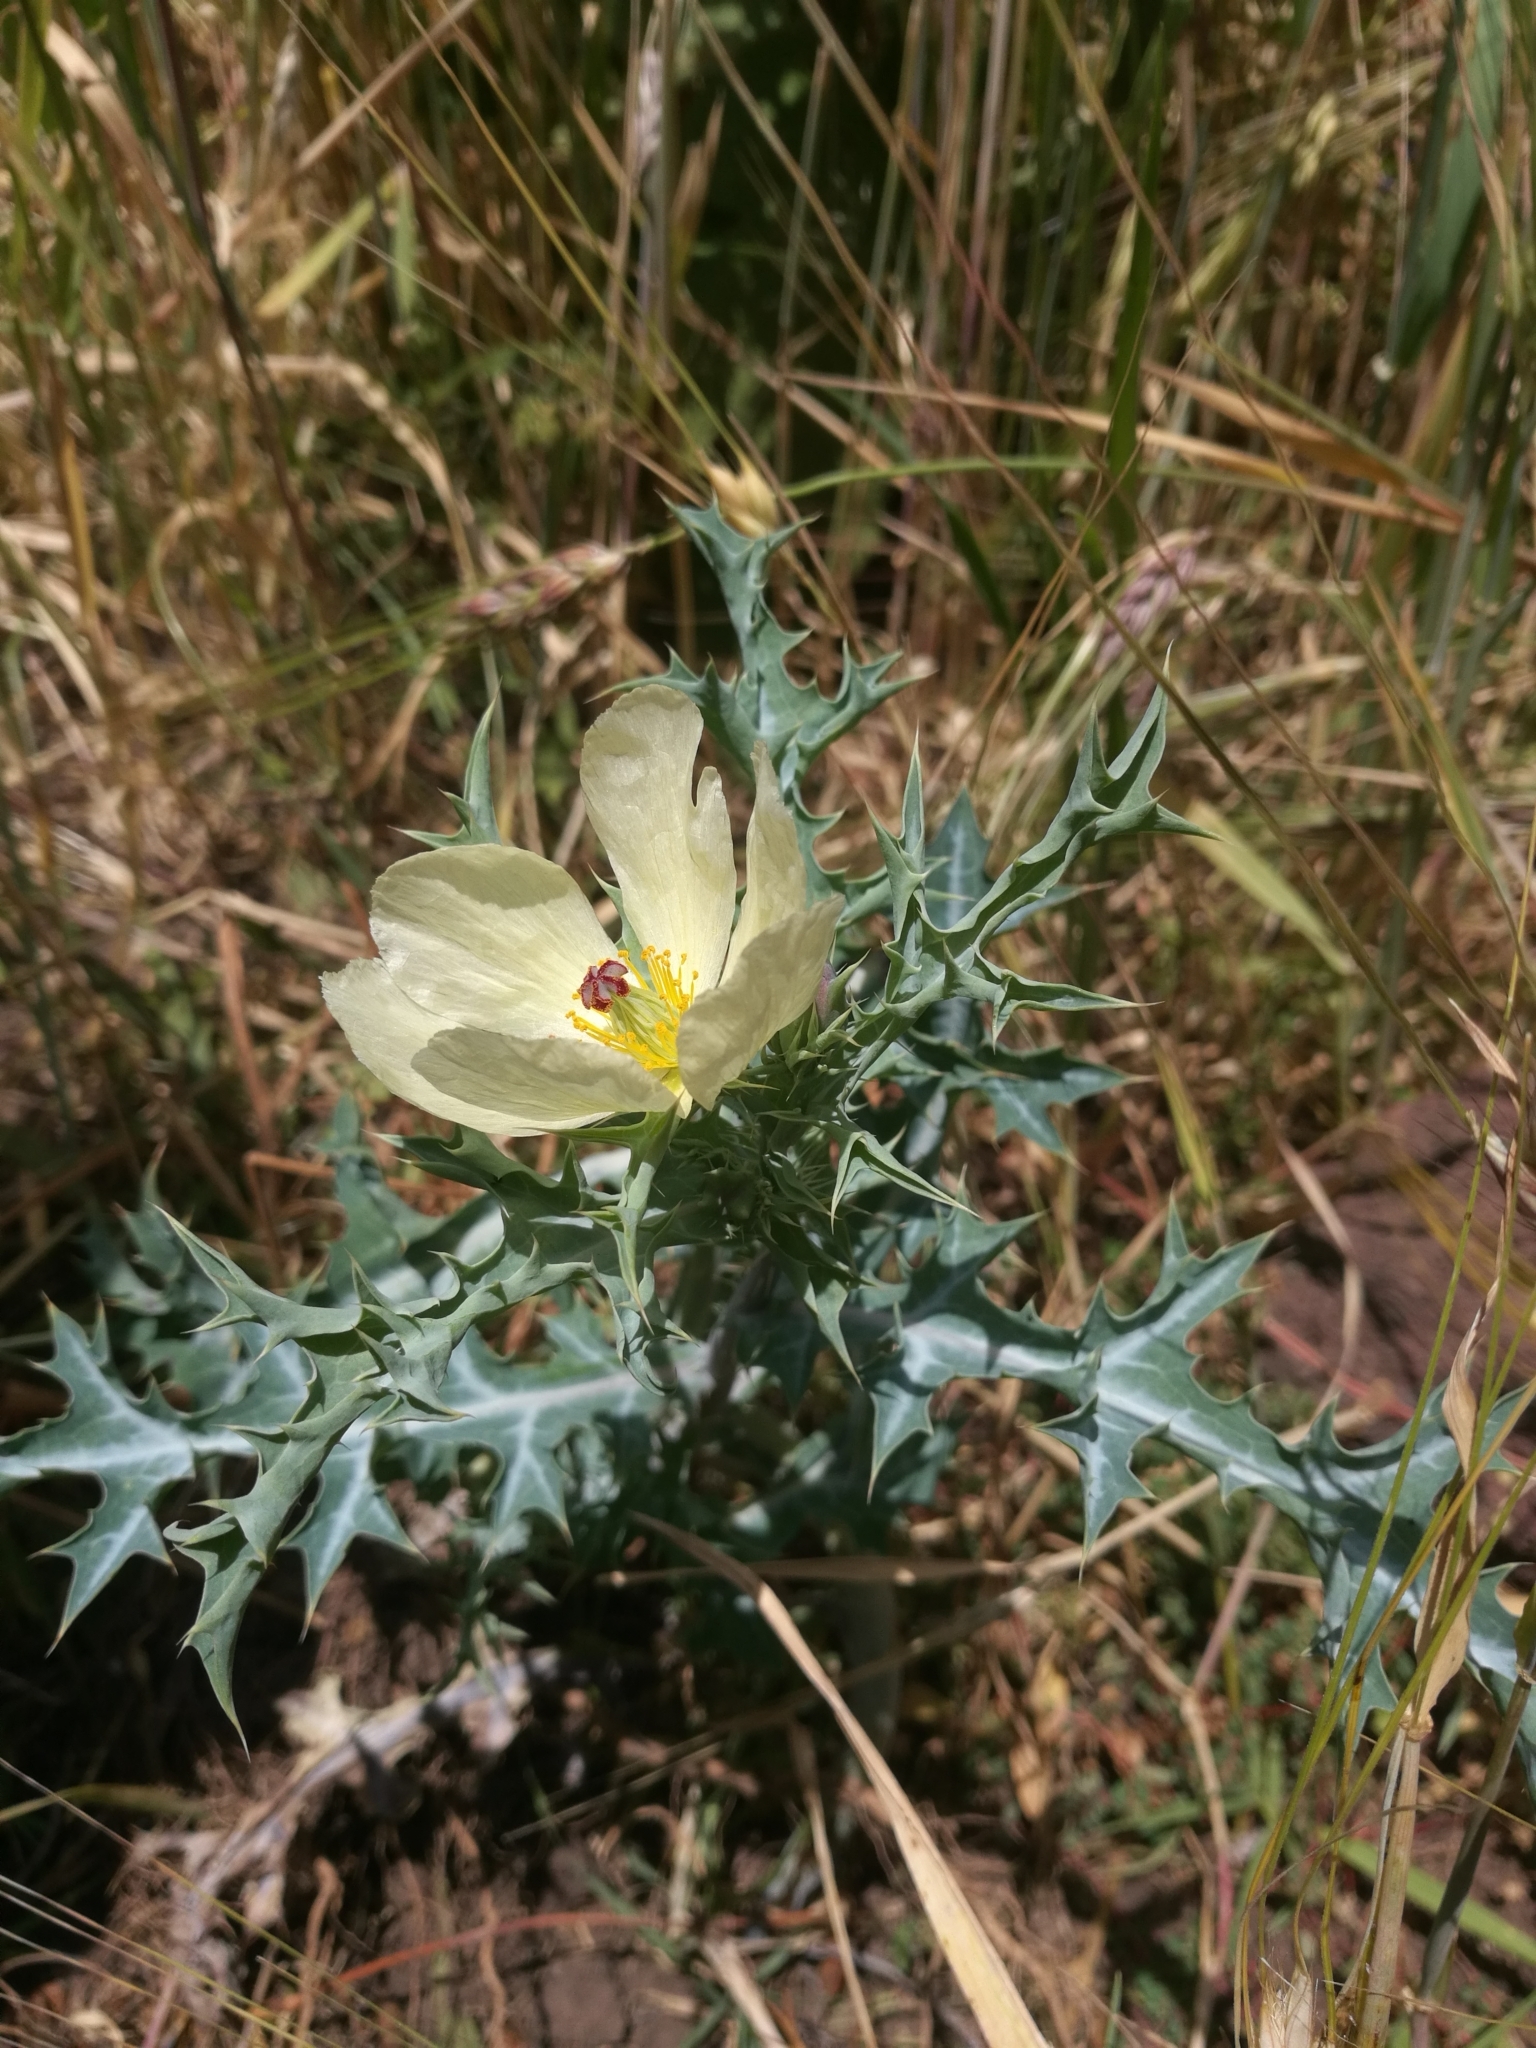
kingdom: Plantae
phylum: Tracheophyta
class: Magnoliopsida
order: Ranunculales
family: Papaveraceae
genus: Argemone
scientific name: Argemone ochroleuca
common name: White-flower mexican-poppy
